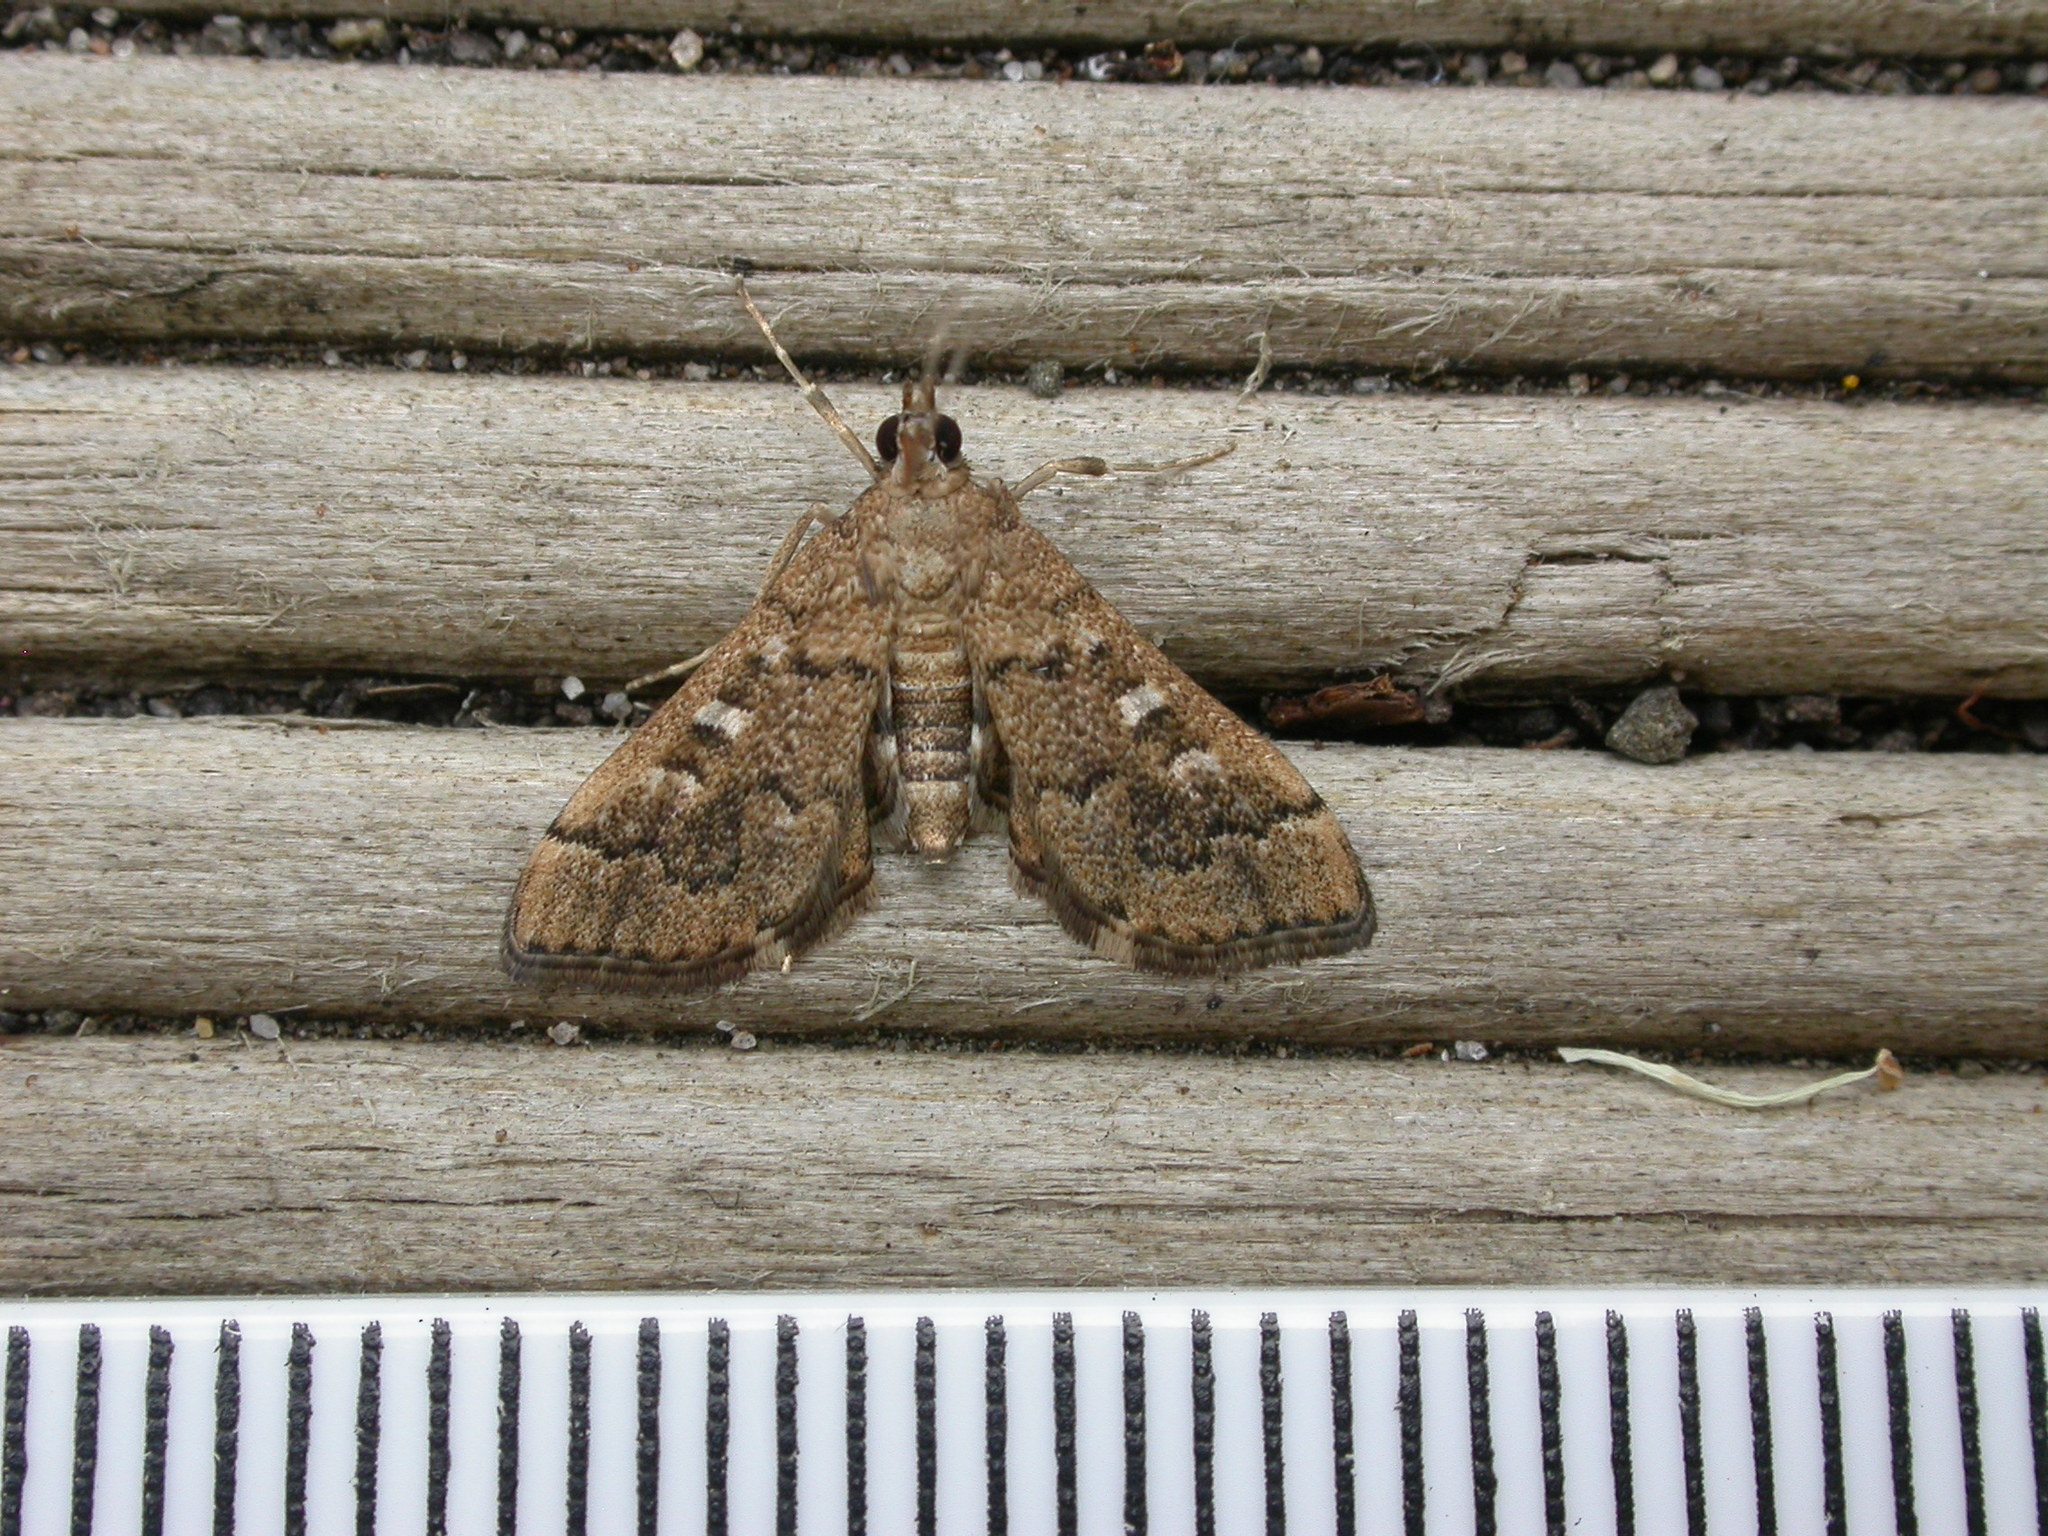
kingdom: Animalia
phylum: Arthropoda
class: Insecta
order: Lepidoptera
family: Crambidae
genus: Nacoleia
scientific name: Nacoleia rhoeoalis
